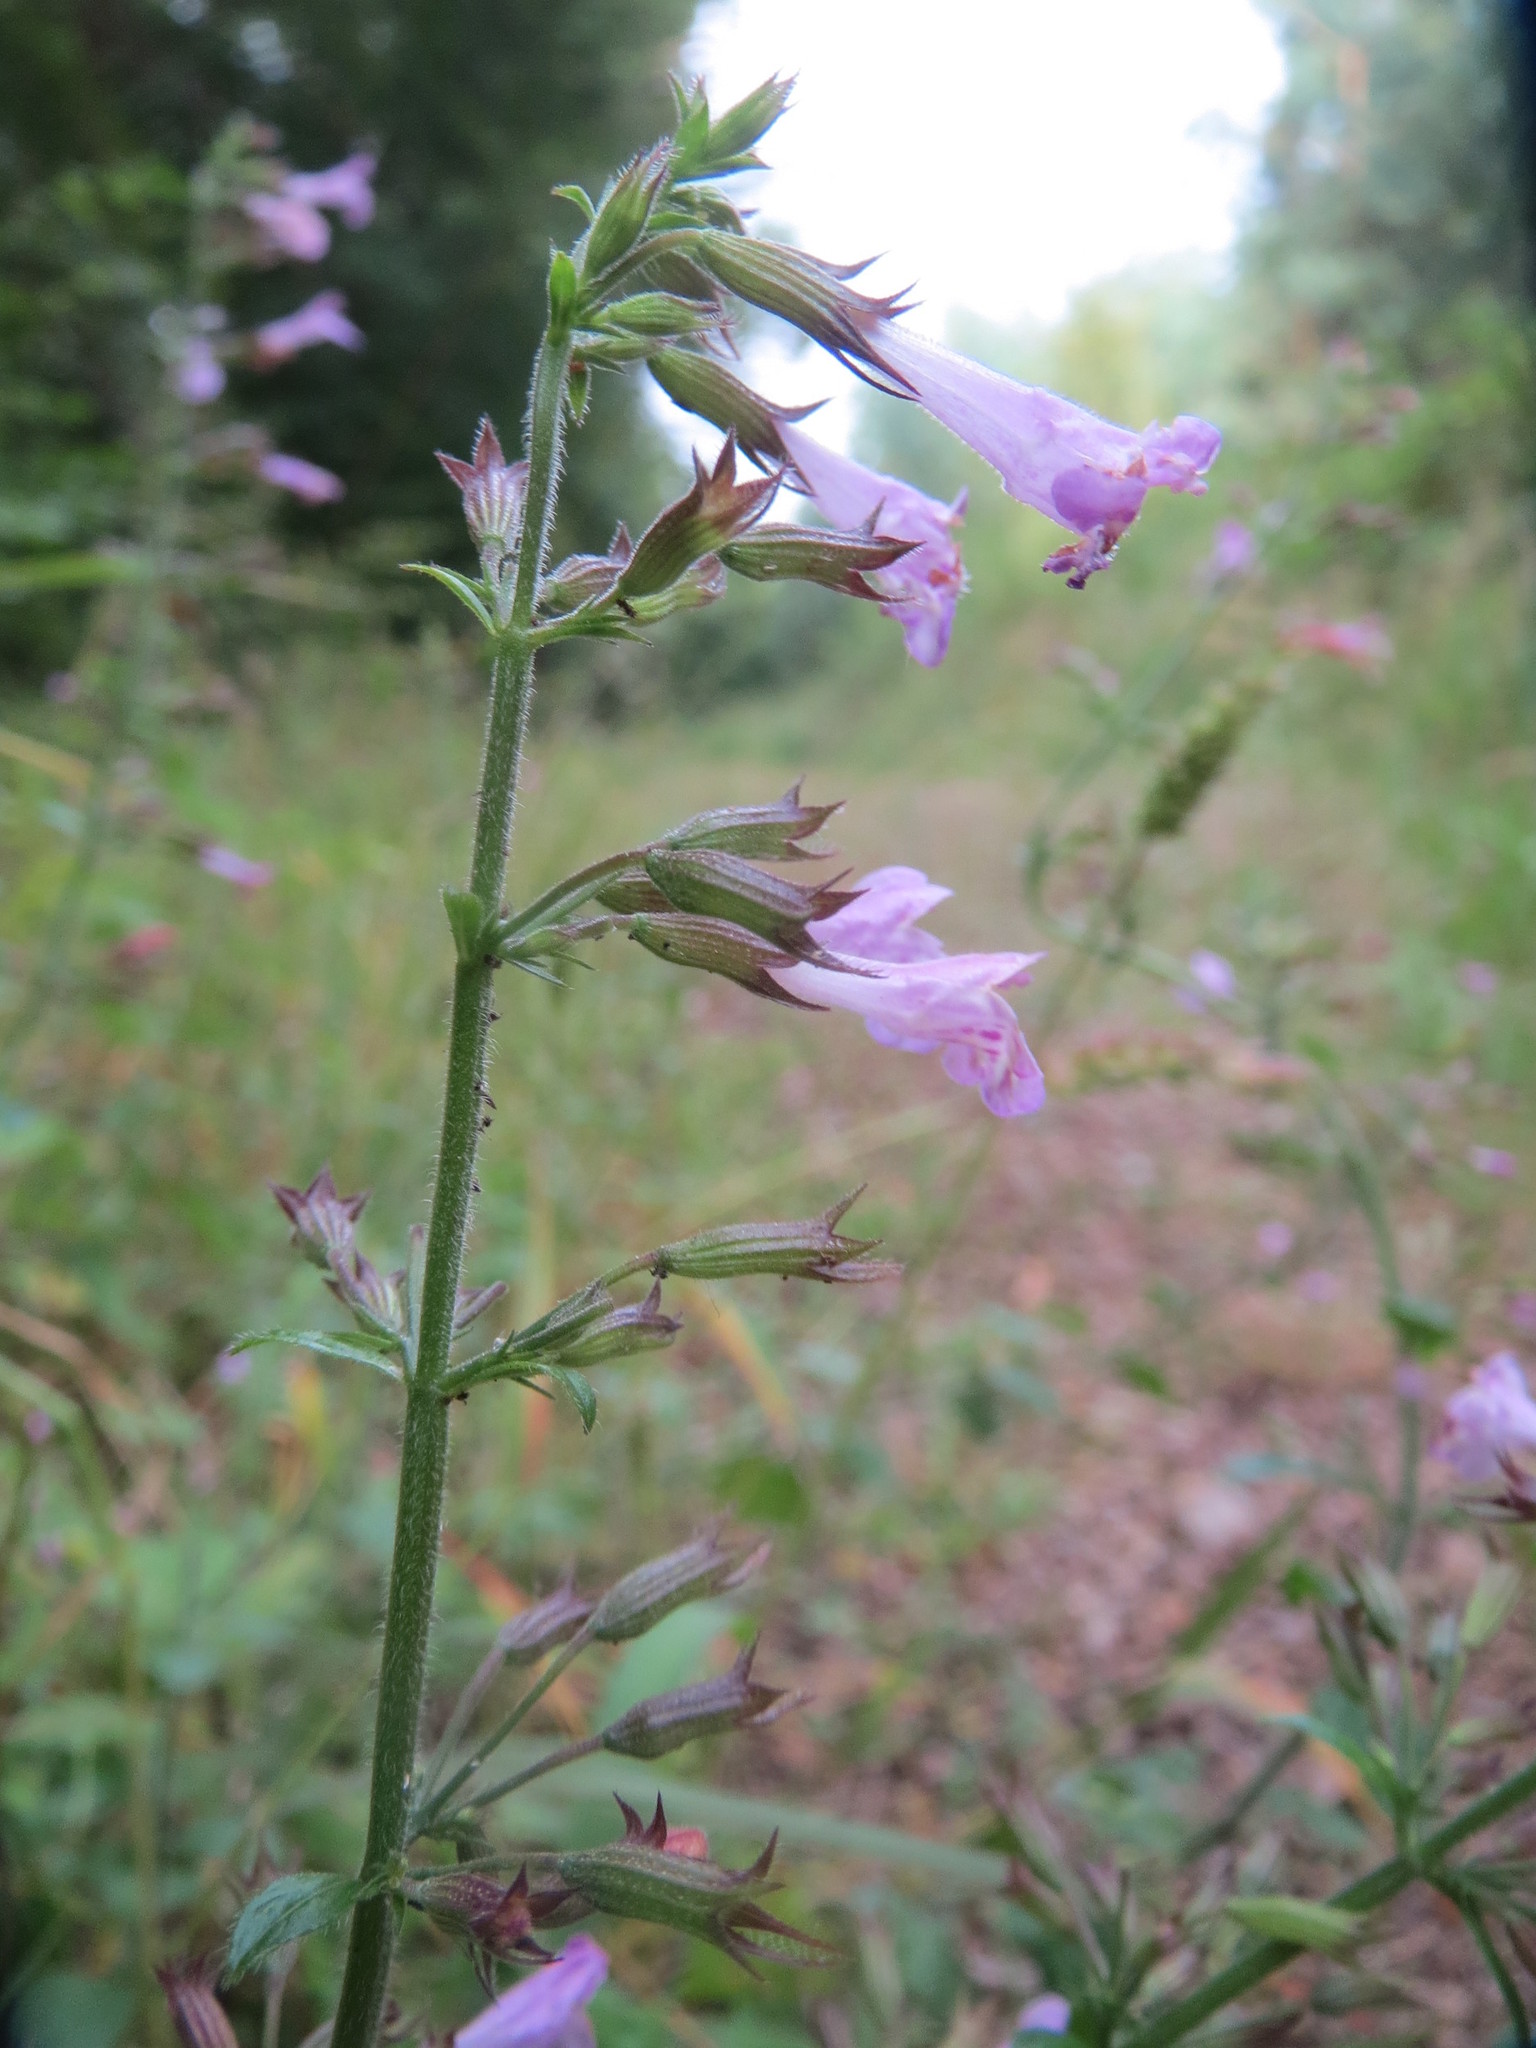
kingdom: Plantae
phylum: Tracheophyta
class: Magnoliopsida
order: Lamiales
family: Lamiaceae
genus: Clinopodium
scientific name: Clinopodium menthifolium
